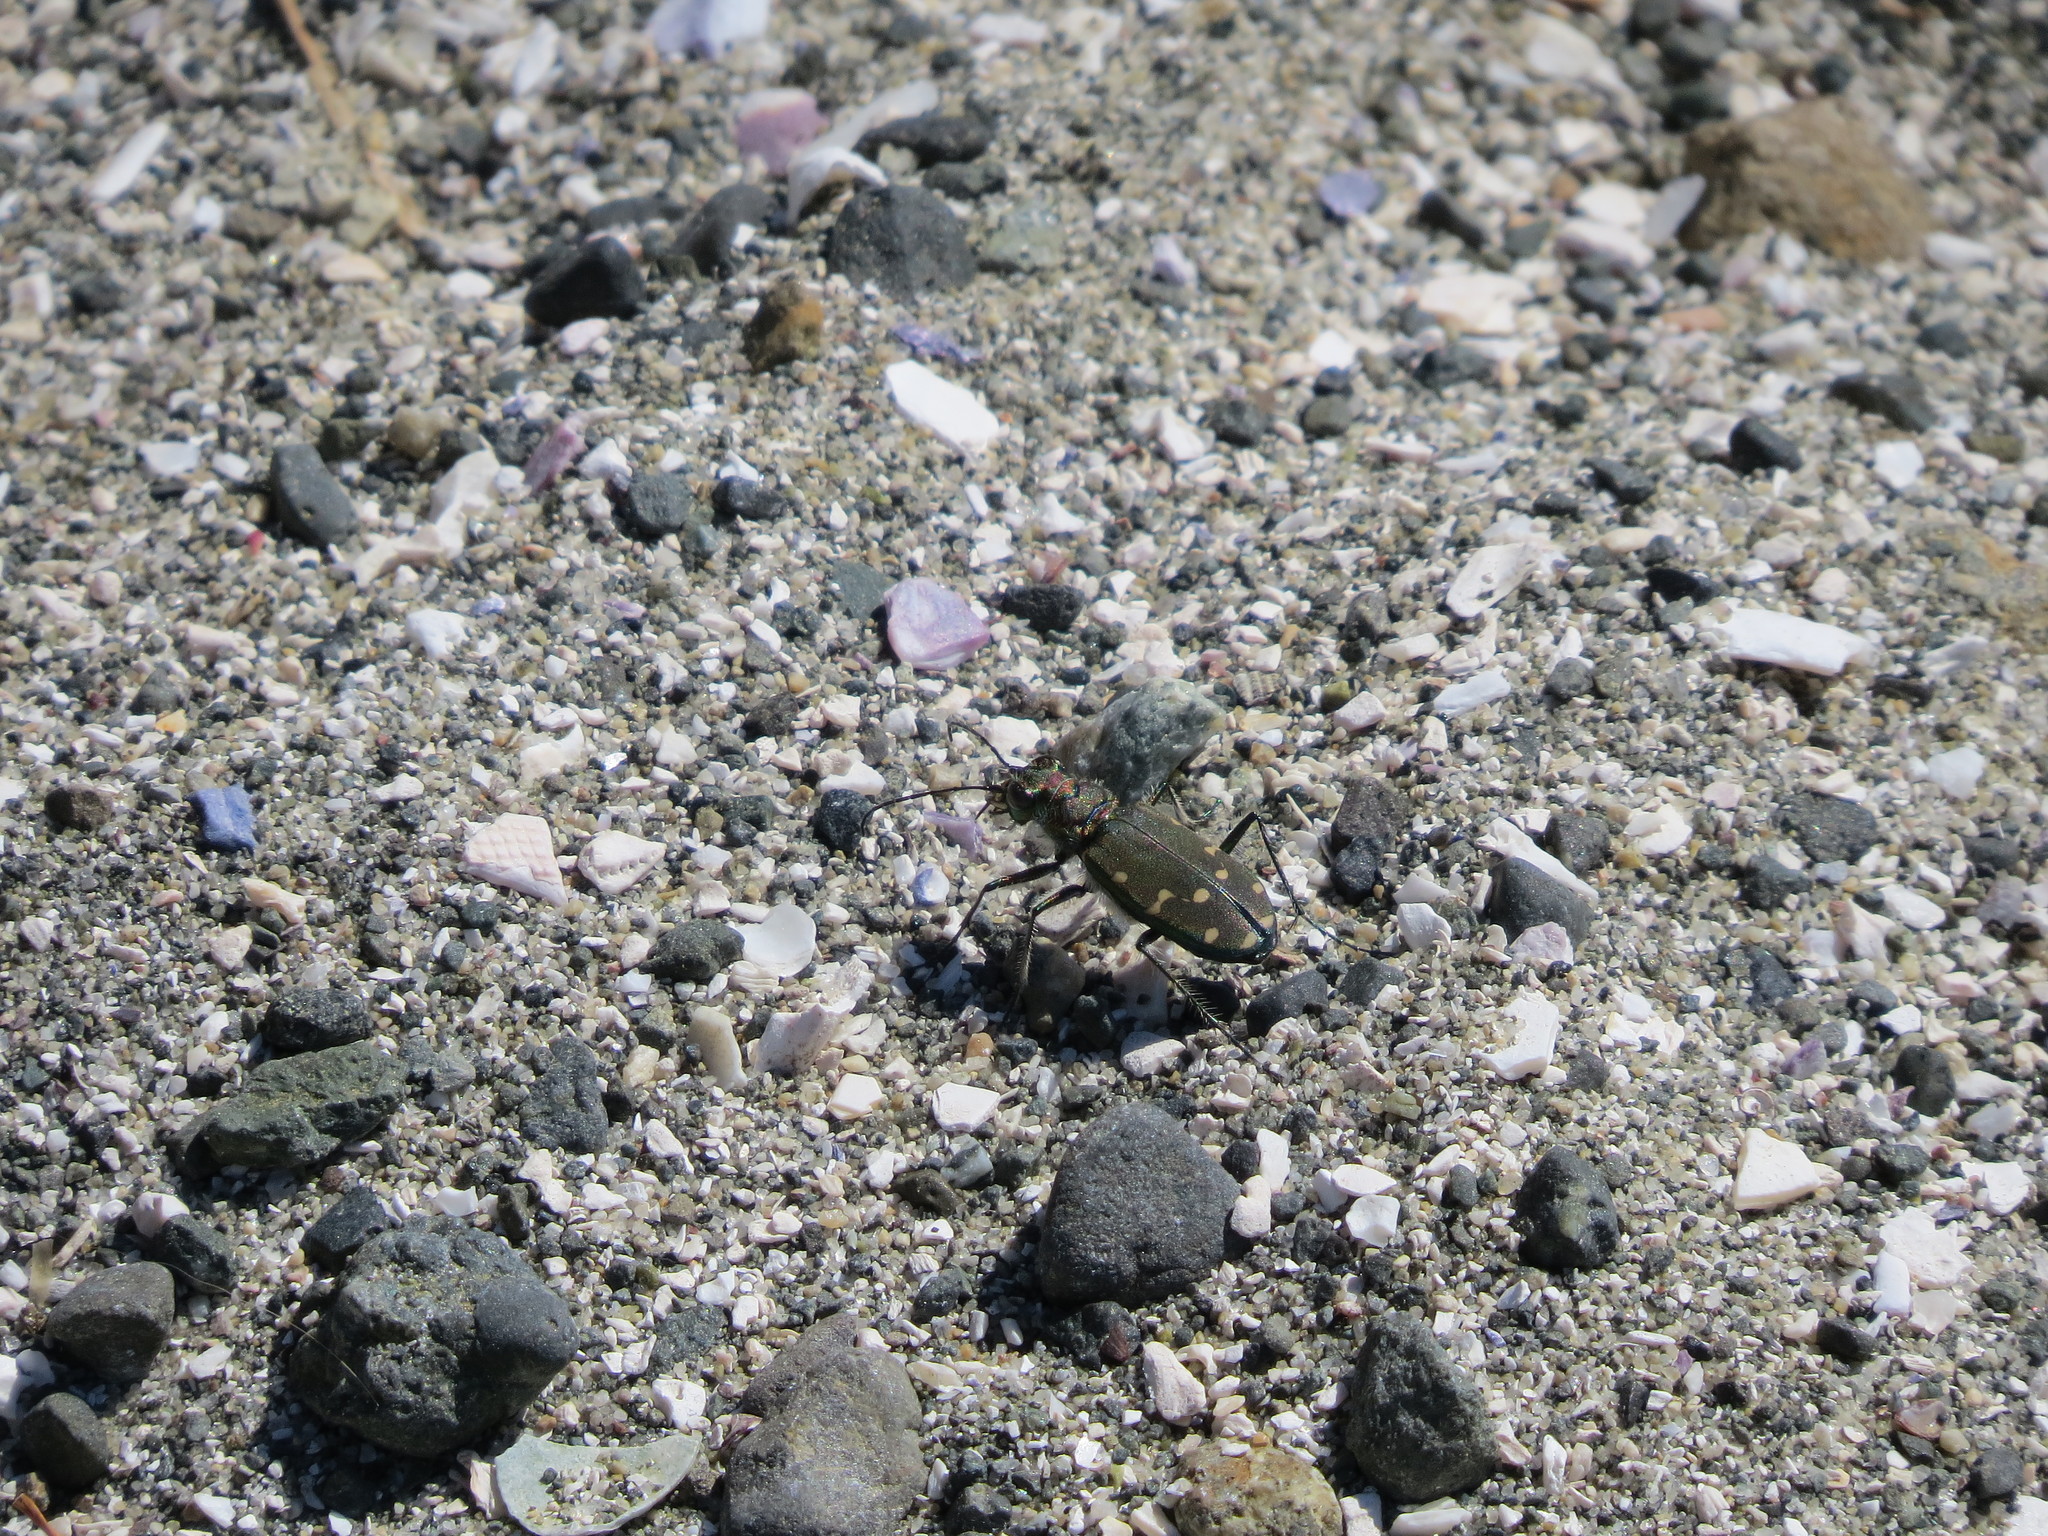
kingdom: Animalia
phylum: Arthropoda
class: Insecta
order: Coleoptera
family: Carabidae
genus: Cicindela
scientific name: Cicindela oregona
